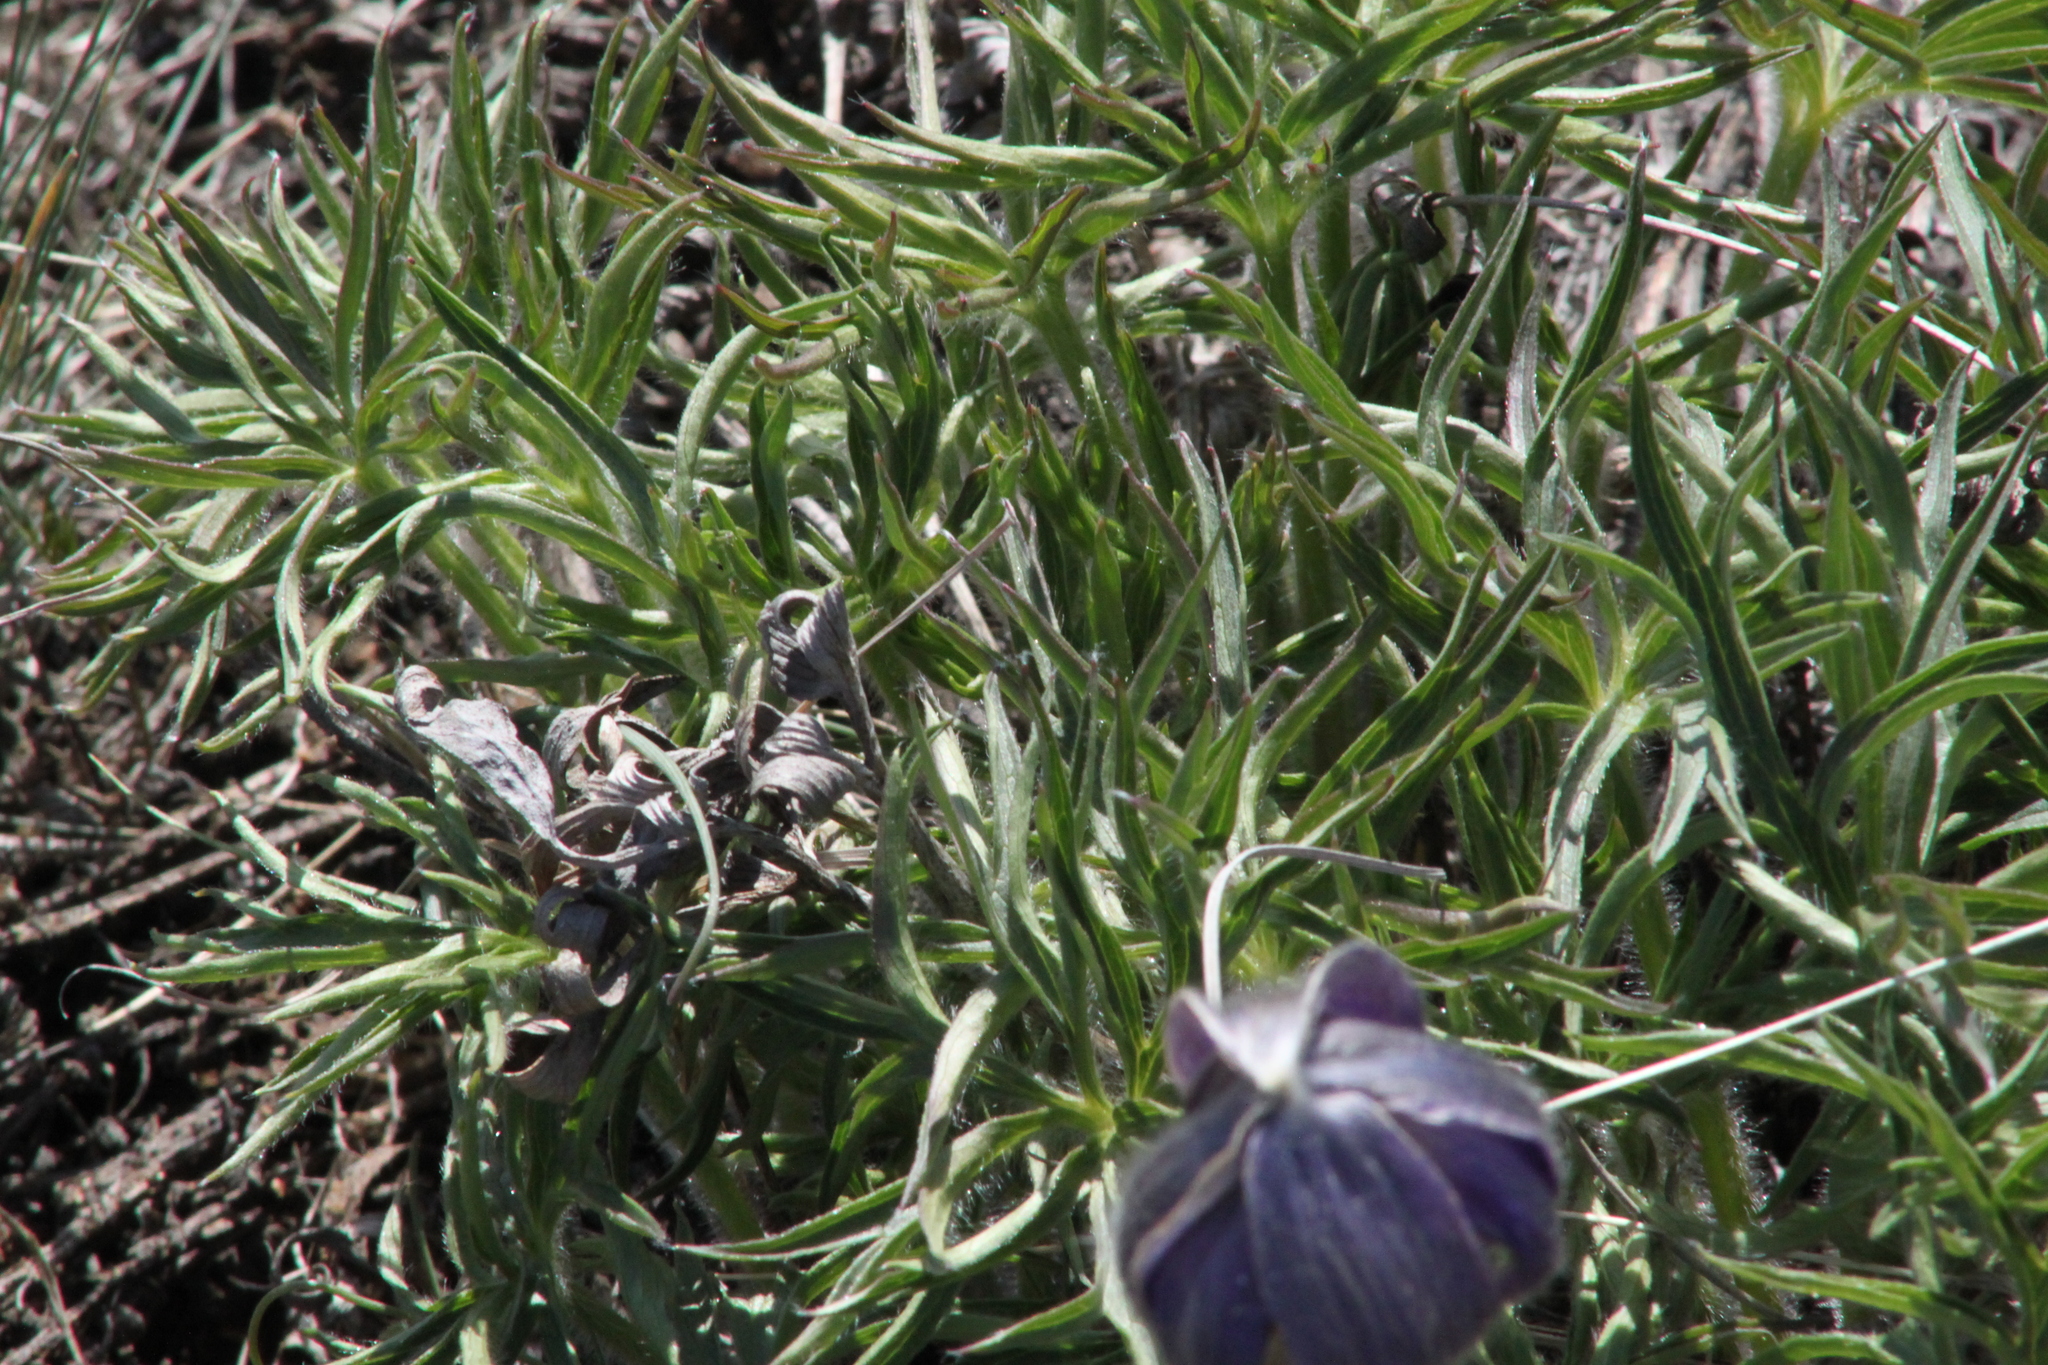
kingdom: Plantae
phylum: Tracheophyta
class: Magnoliopsida
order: Ranunculales
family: Ranunculaceae
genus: Pulsatilla
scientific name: Pulsatilla patens
